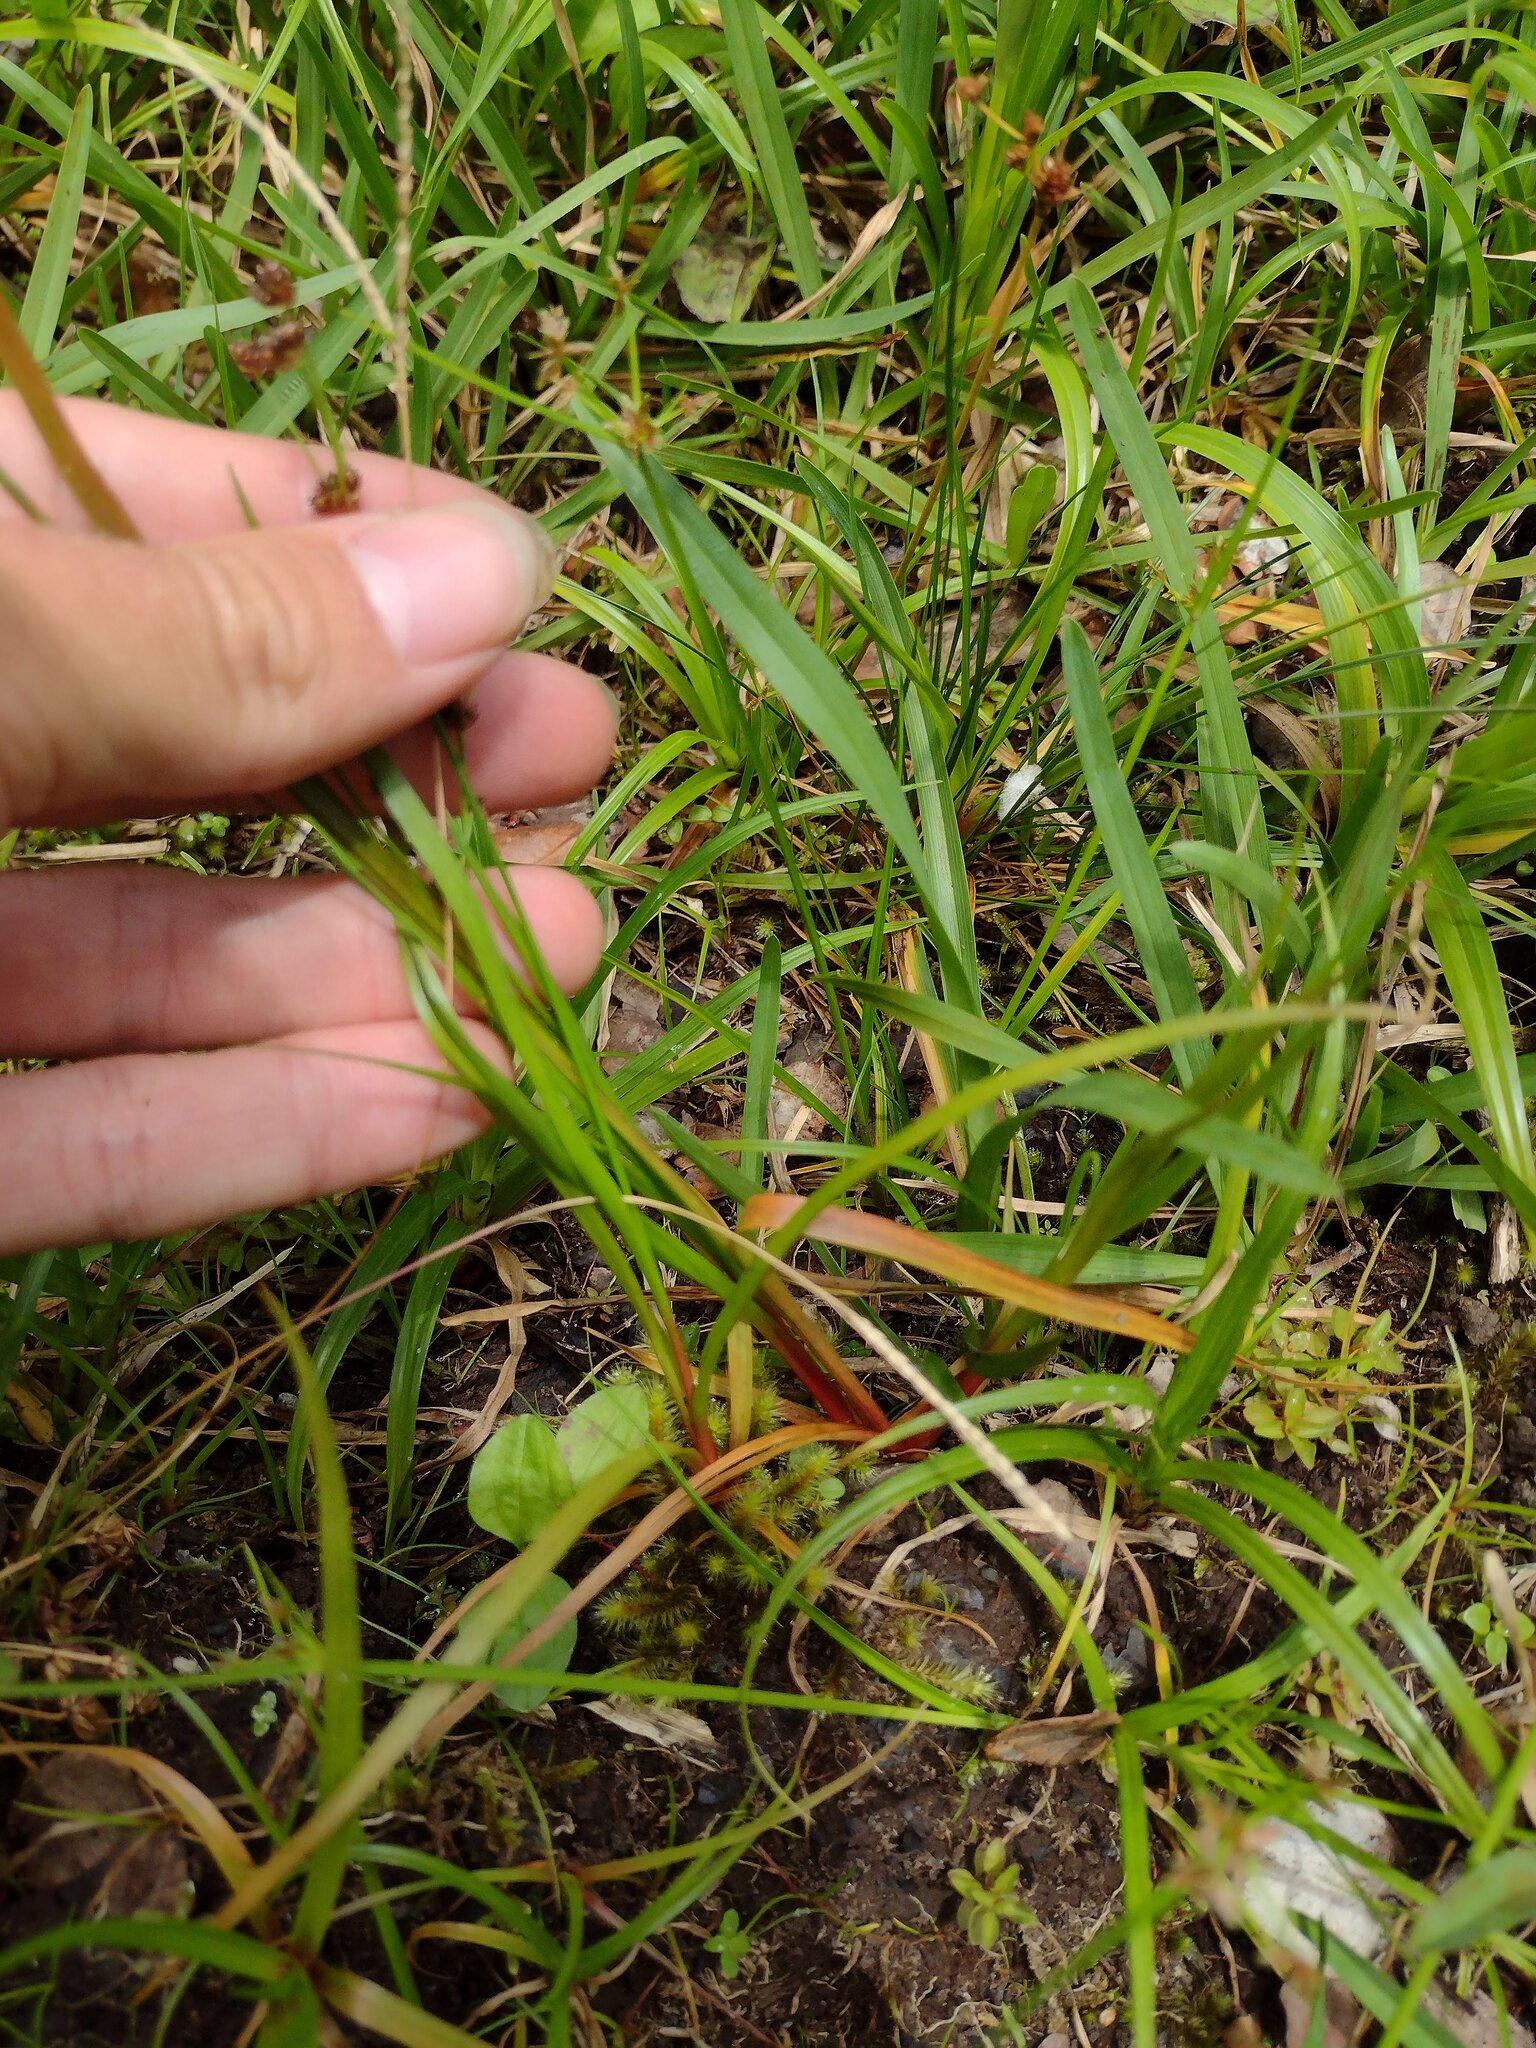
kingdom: Plantae
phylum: Tracheophyta
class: Liliopsida
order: Poales
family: Juncaceae
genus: Juncus
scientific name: Juncus planifolius
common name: Broadleaf rush
